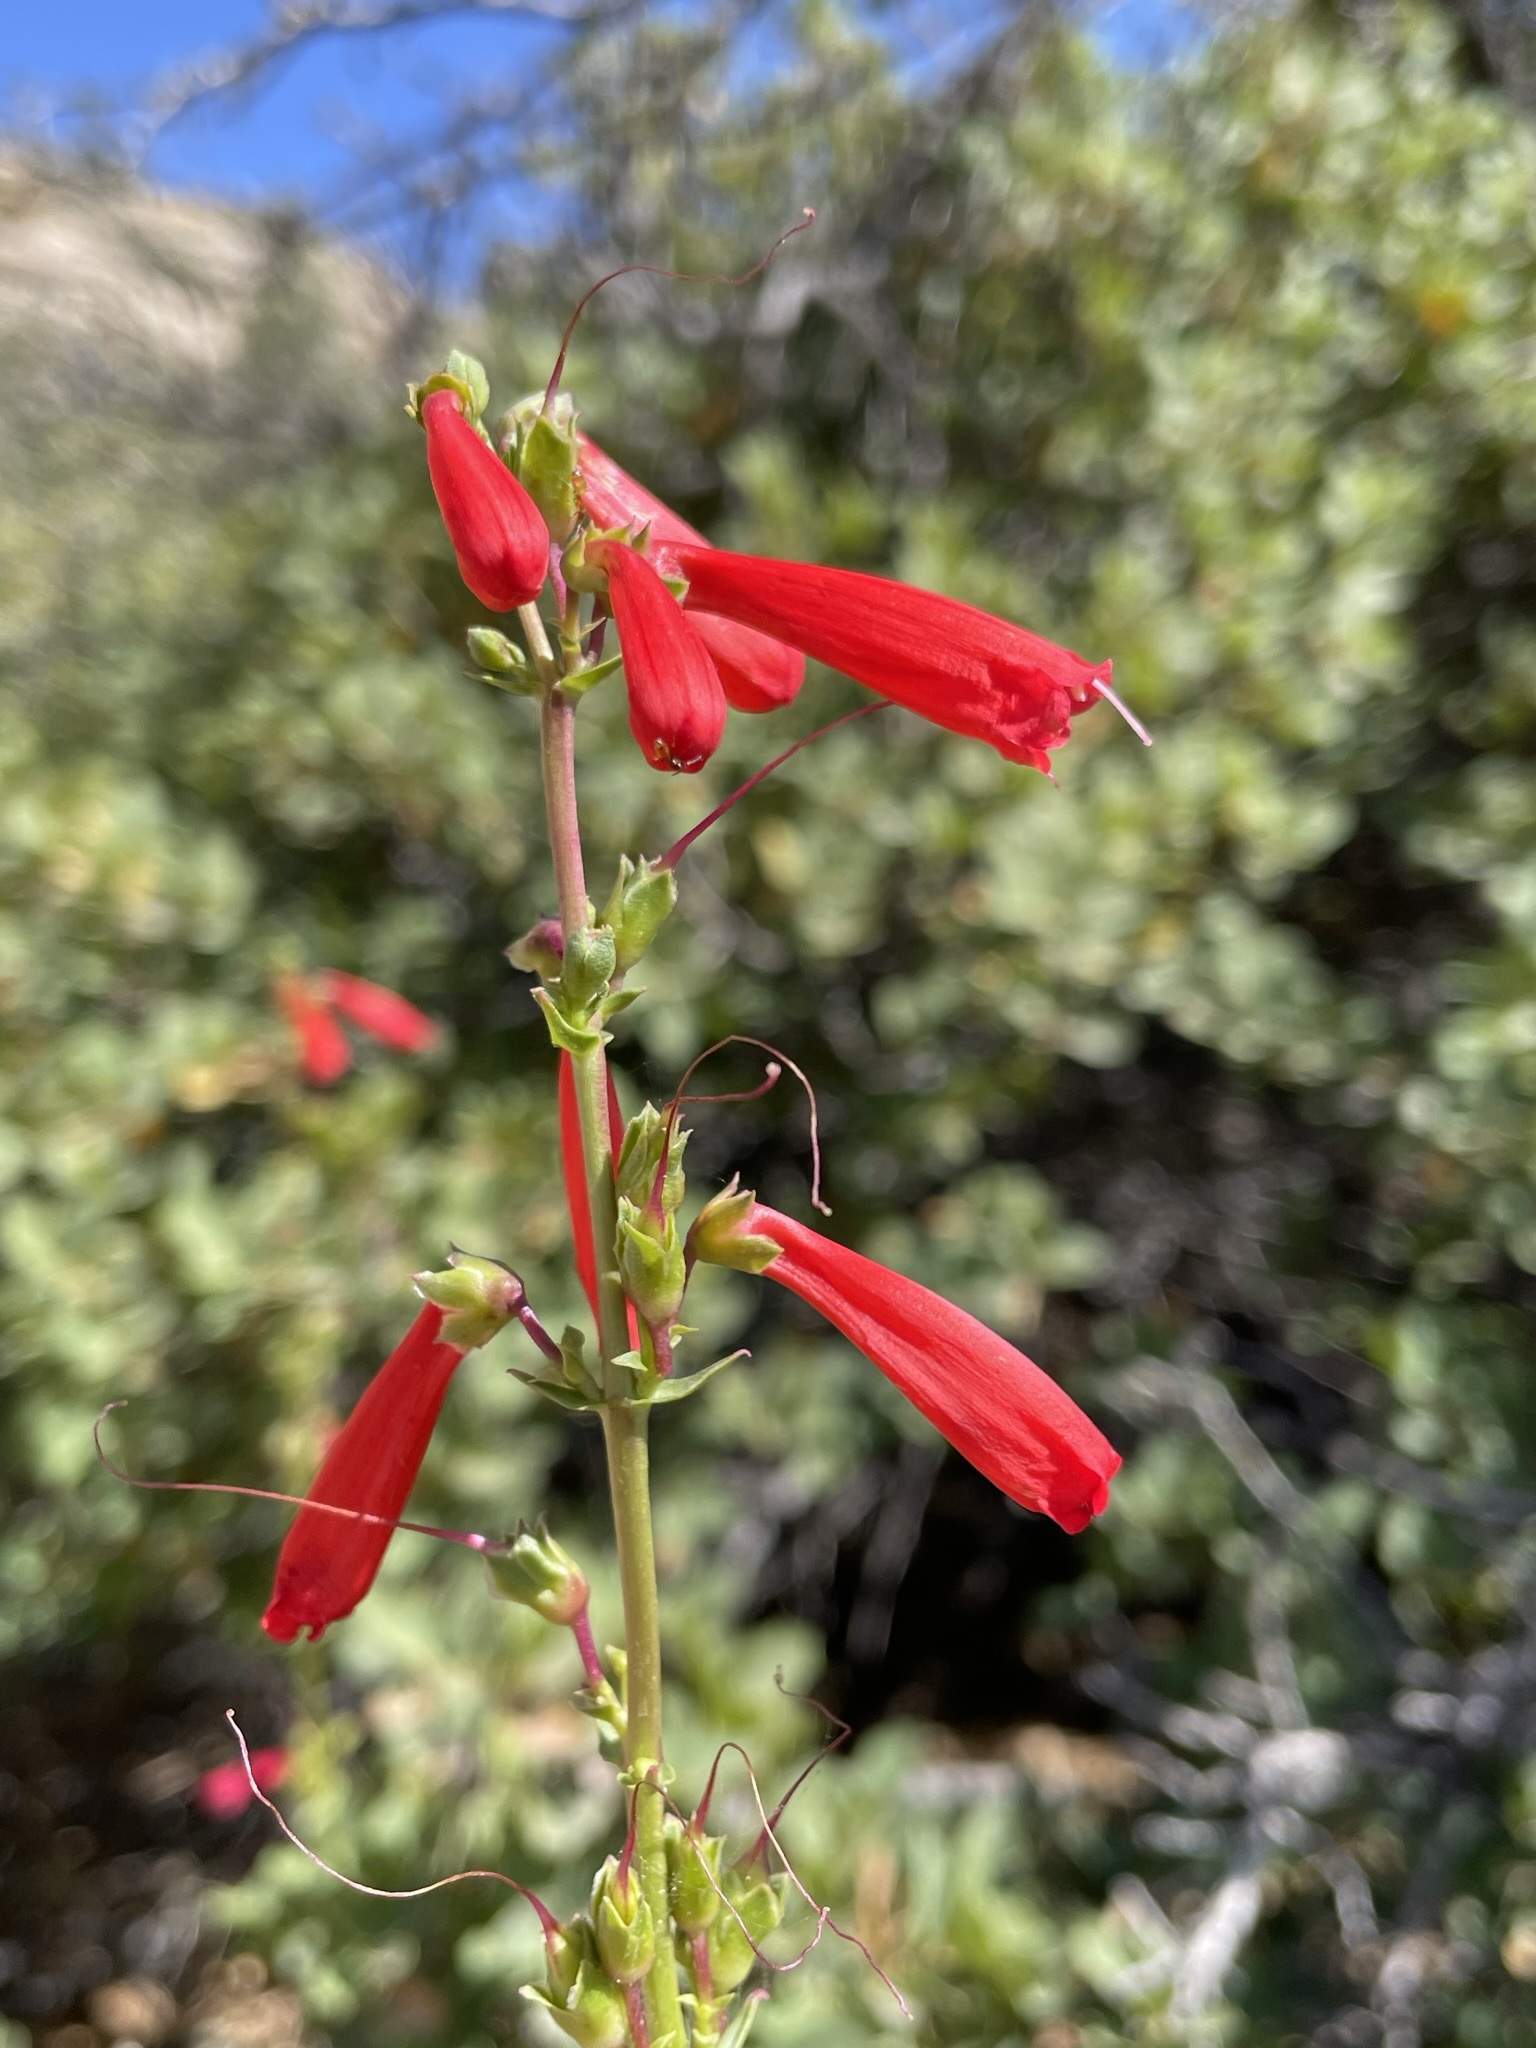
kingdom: Plantae
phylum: Tracheophyta
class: Magnoliopsida
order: Lamiales
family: Plantaginaceae
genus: Penstemon
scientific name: Penstemon eatonii
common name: Eaton's penstemon
